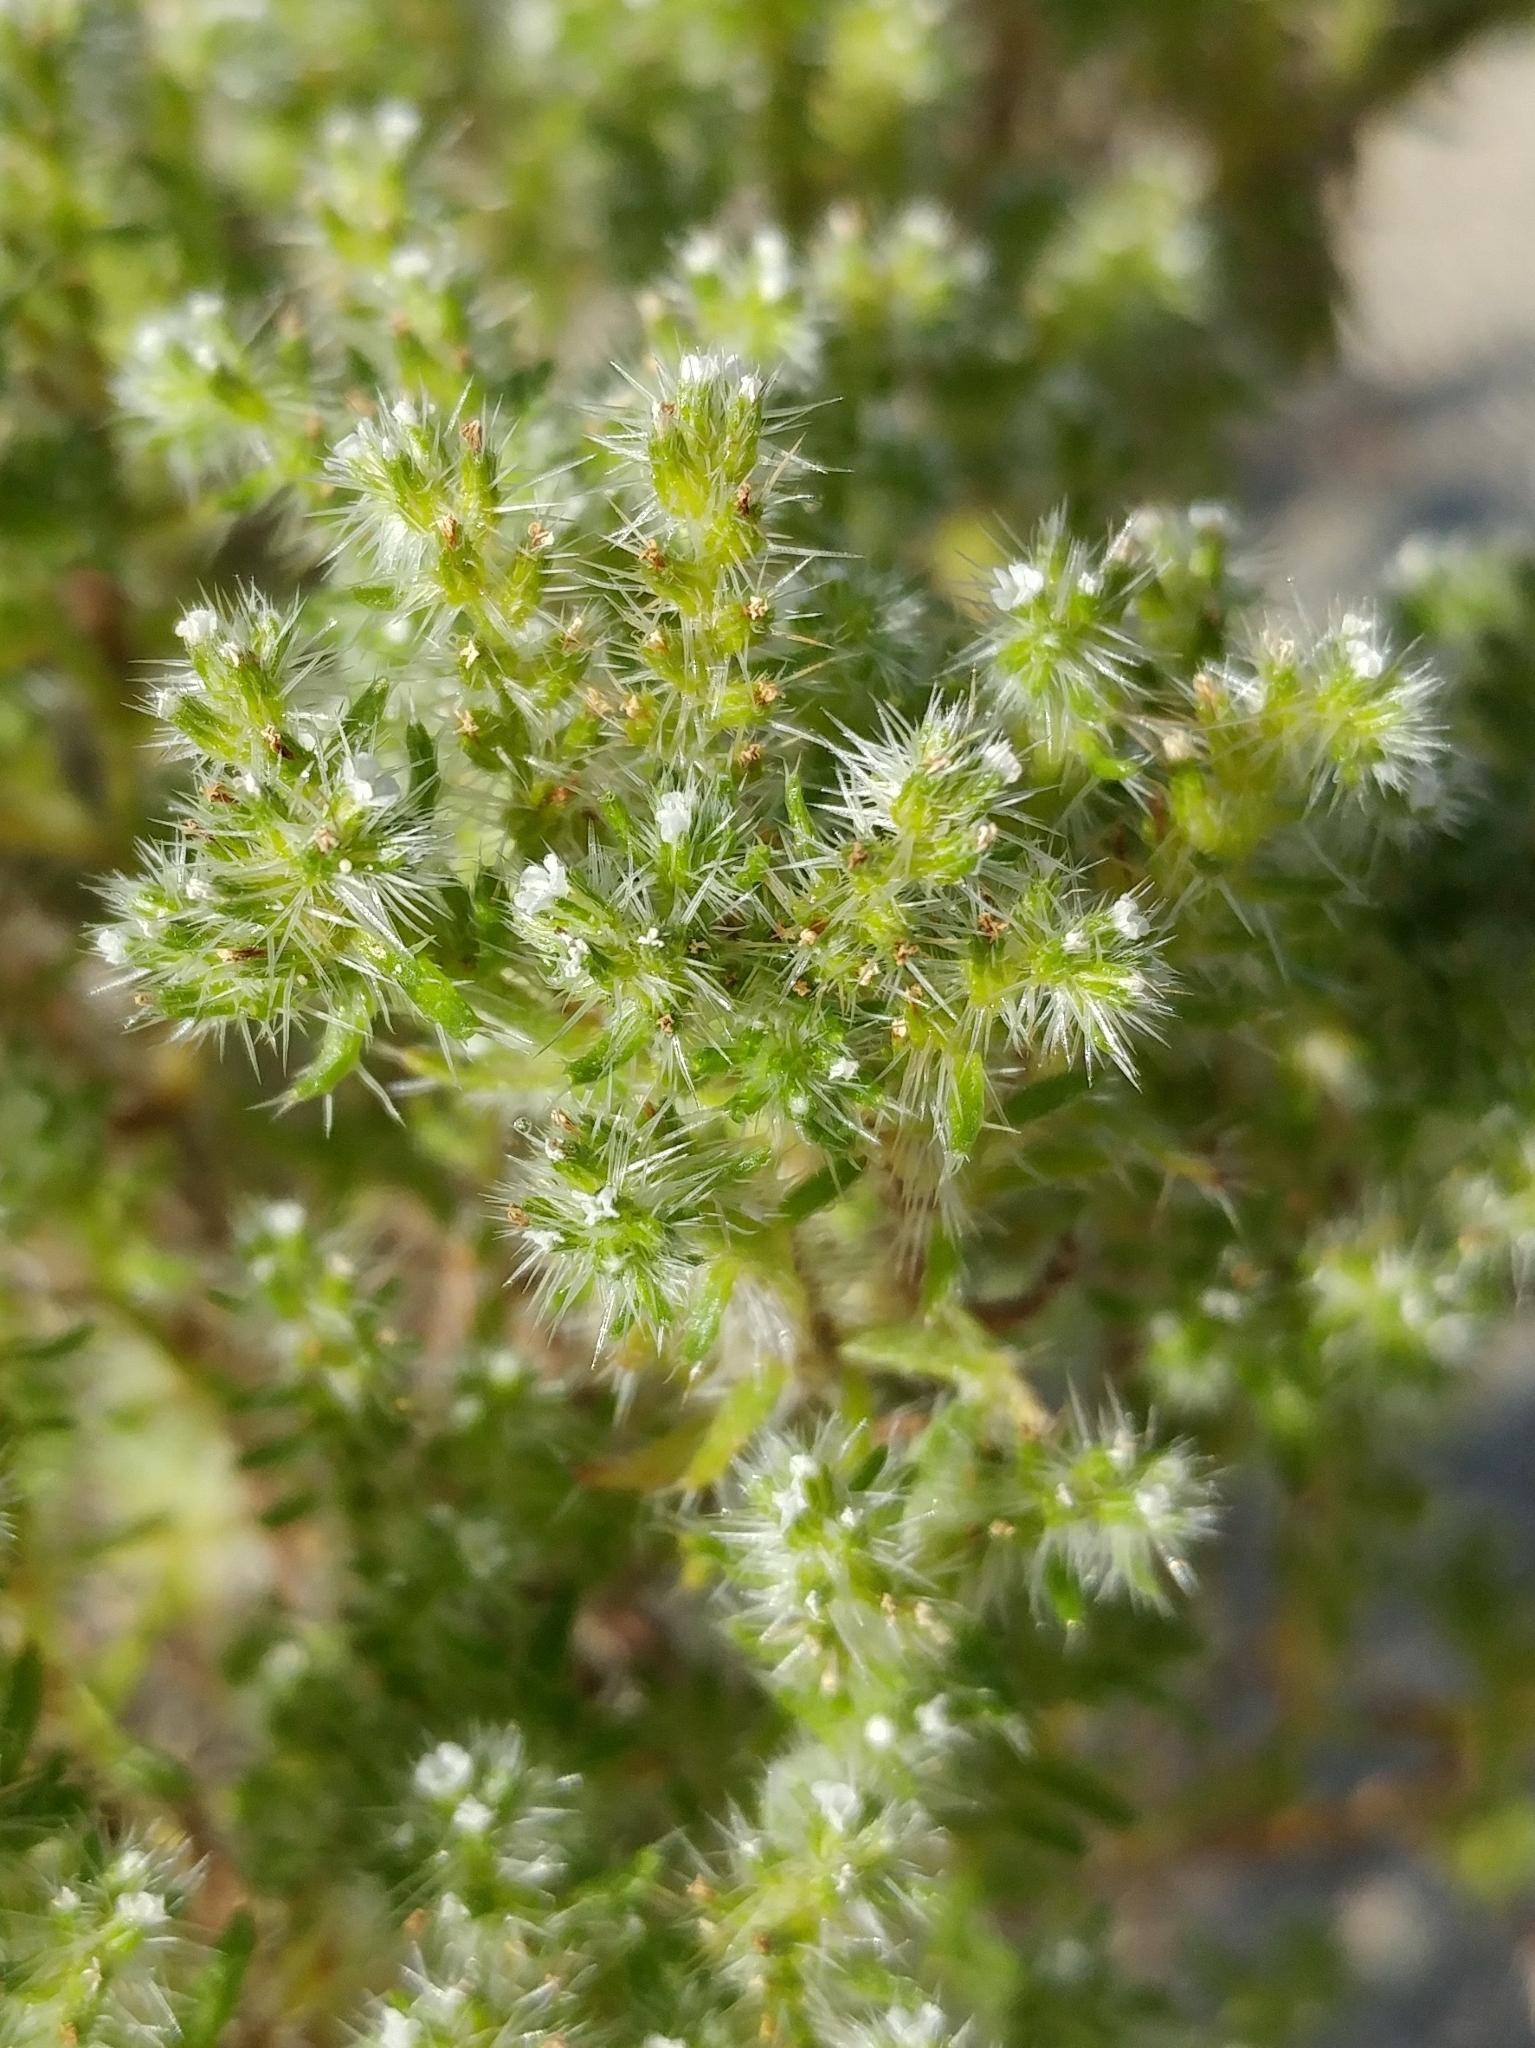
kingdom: Plantae
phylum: Tracheophyta
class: Magnoliopsida
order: Boraginales
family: Boraginaceae
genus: Cryptantha
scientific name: Cryptantha maritima
